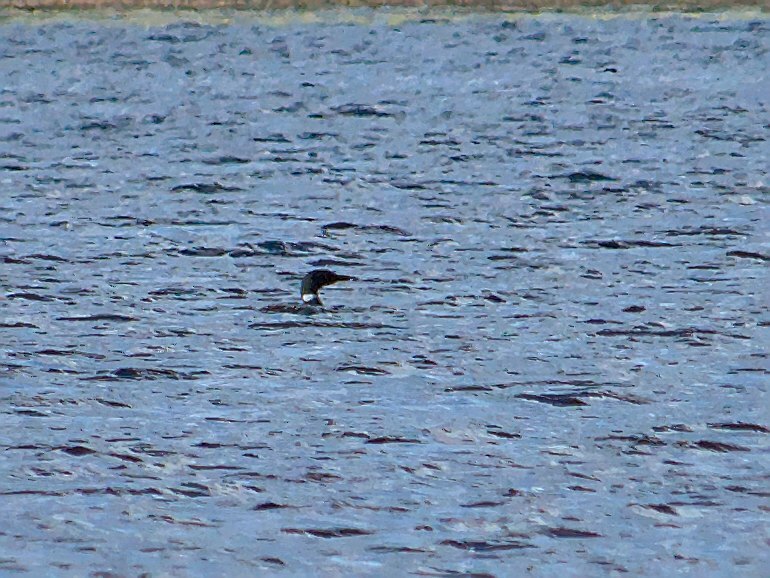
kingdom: Animalia
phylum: Chordata
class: Aves
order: Gaviiformes
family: Gaviidae
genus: Gavia
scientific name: Gavia immer
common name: Common loon
